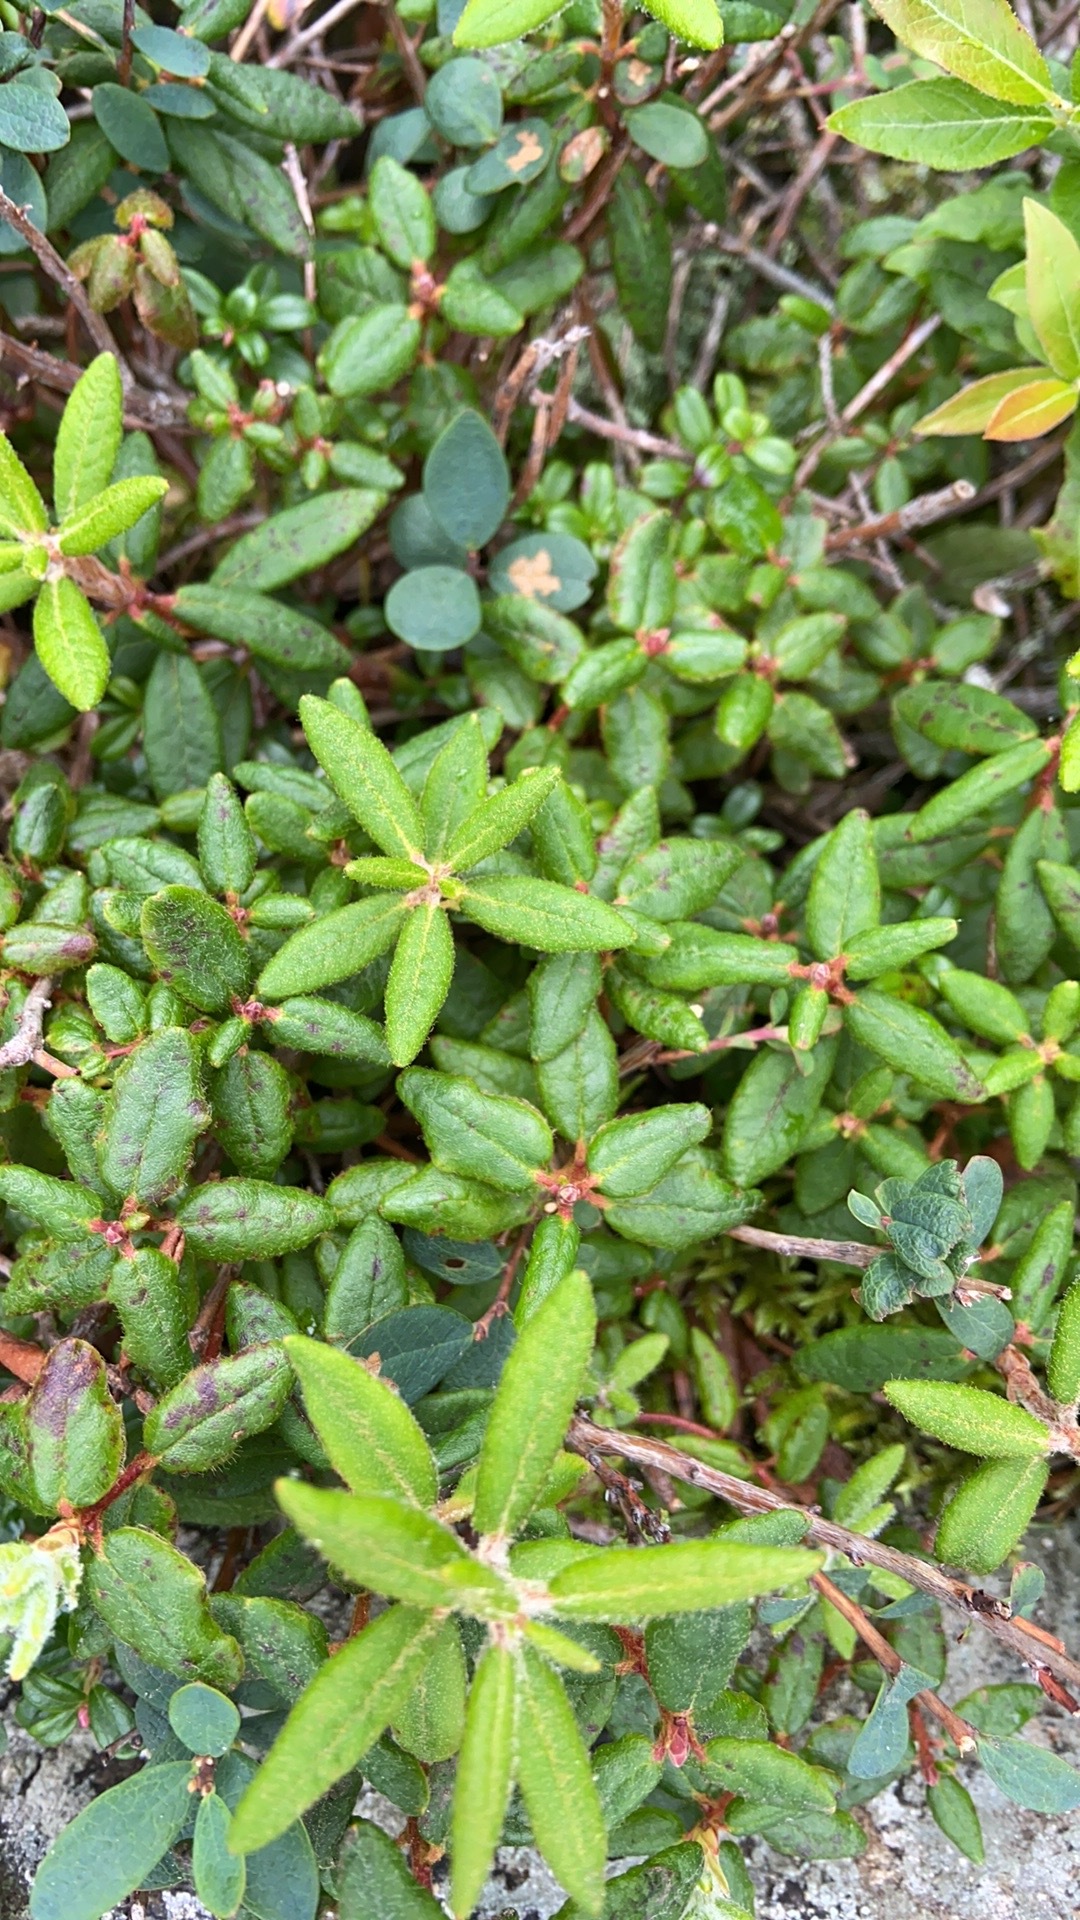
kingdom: Plantae
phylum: Tracheophyta
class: Magnoliopsida
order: Ericales
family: Ericaceae
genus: Rhododendron
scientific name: Rhododendron groenlandicum
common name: Bog labrador tea
